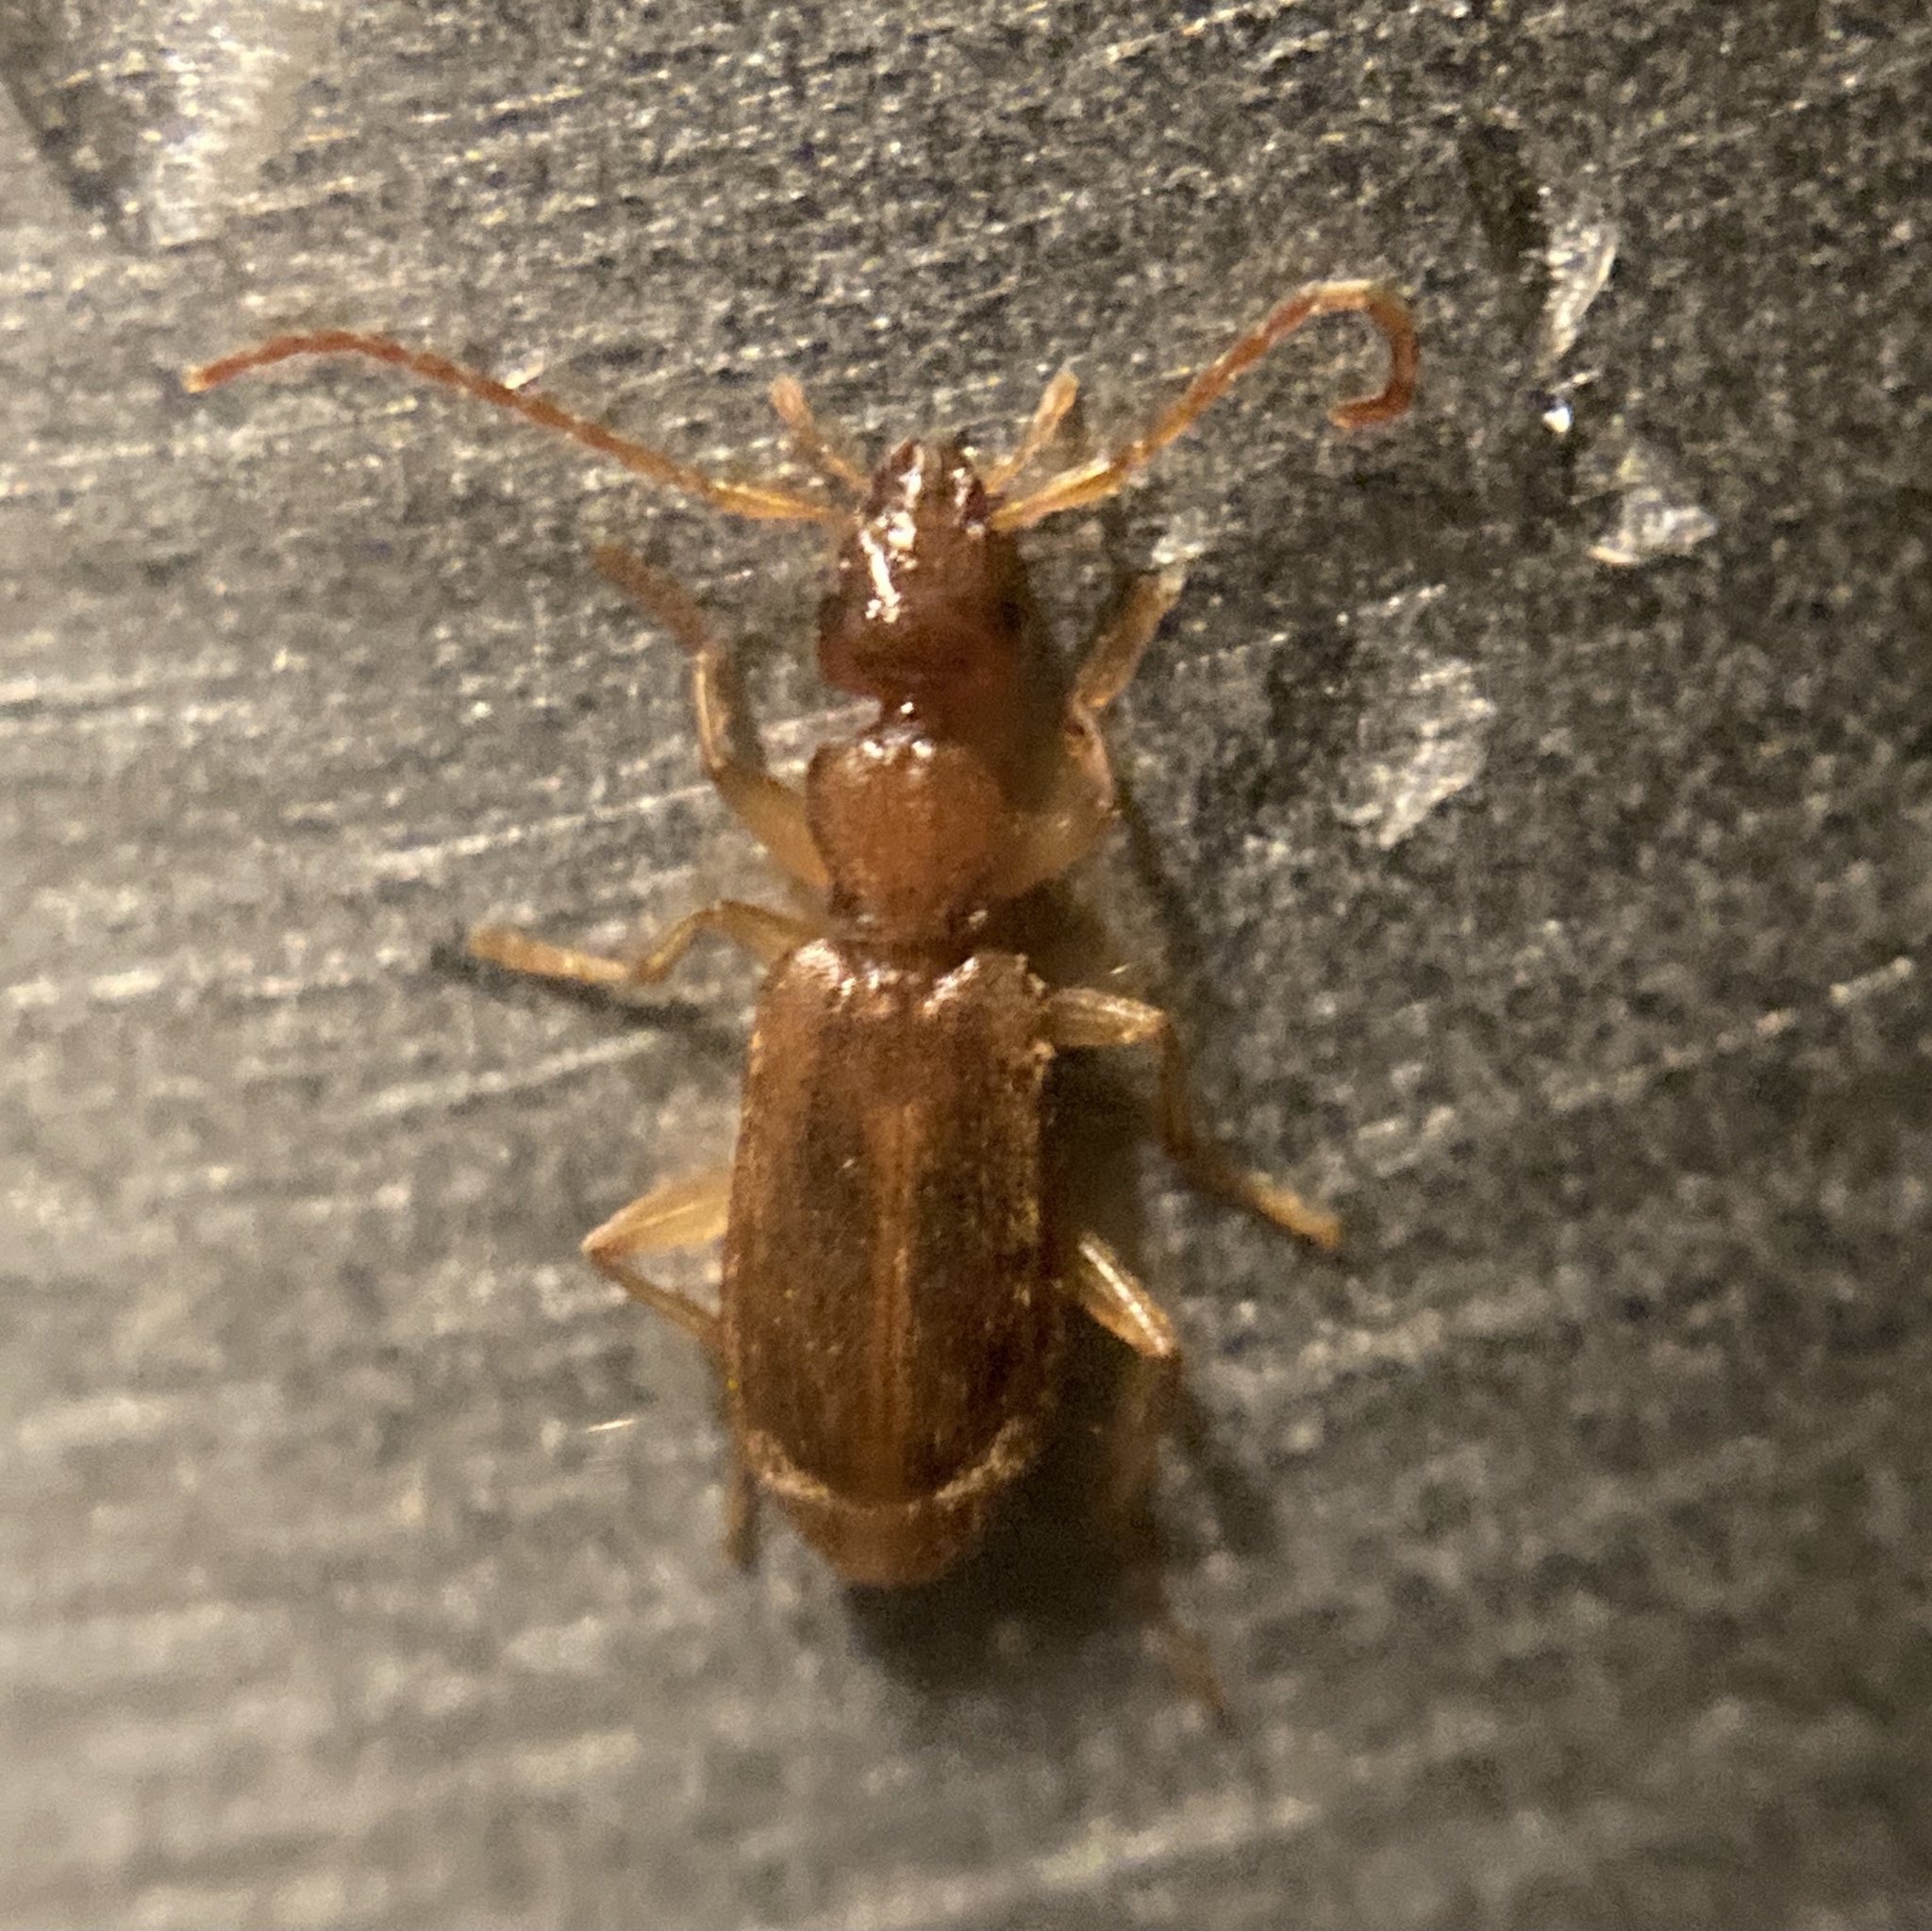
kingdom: Animalia
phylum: Arthropoda
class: Insecta
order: Coleoptera
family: Carabidae
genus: Zuphioides
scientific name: Zuphioides americanum
